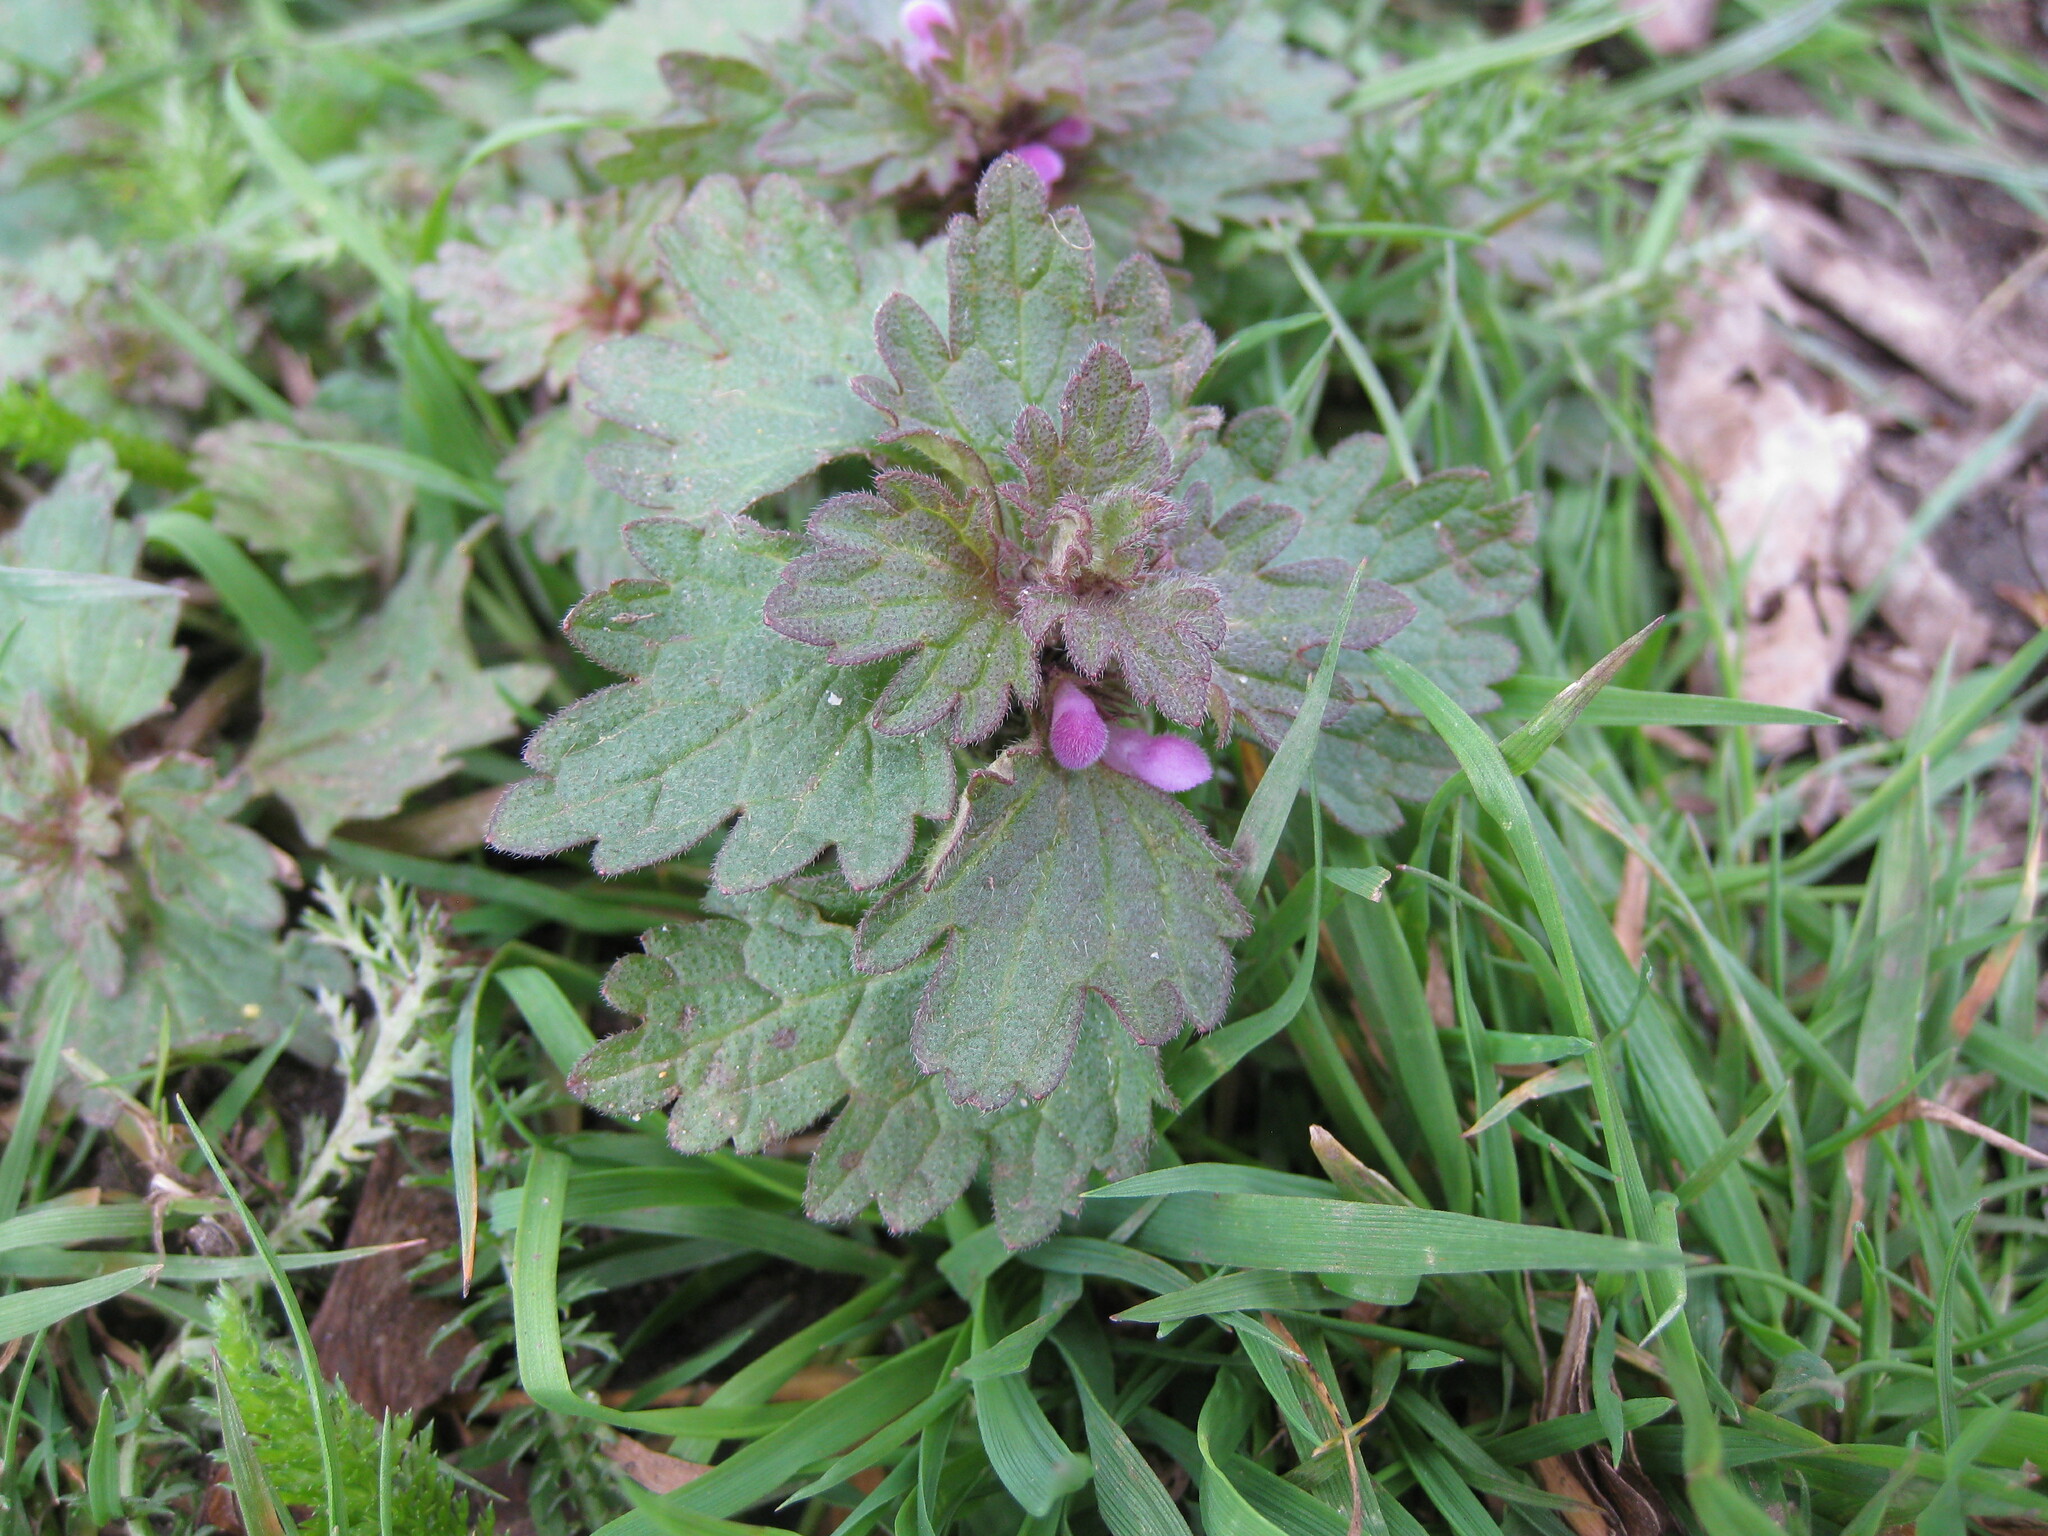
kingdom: Plantae
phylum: Tracheophyta
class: Magnoliopsida
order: Lamiales
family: Lamiaceae
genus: Lamium
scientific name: Lamium hybridum
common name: Cut-leaved dead-nettle
